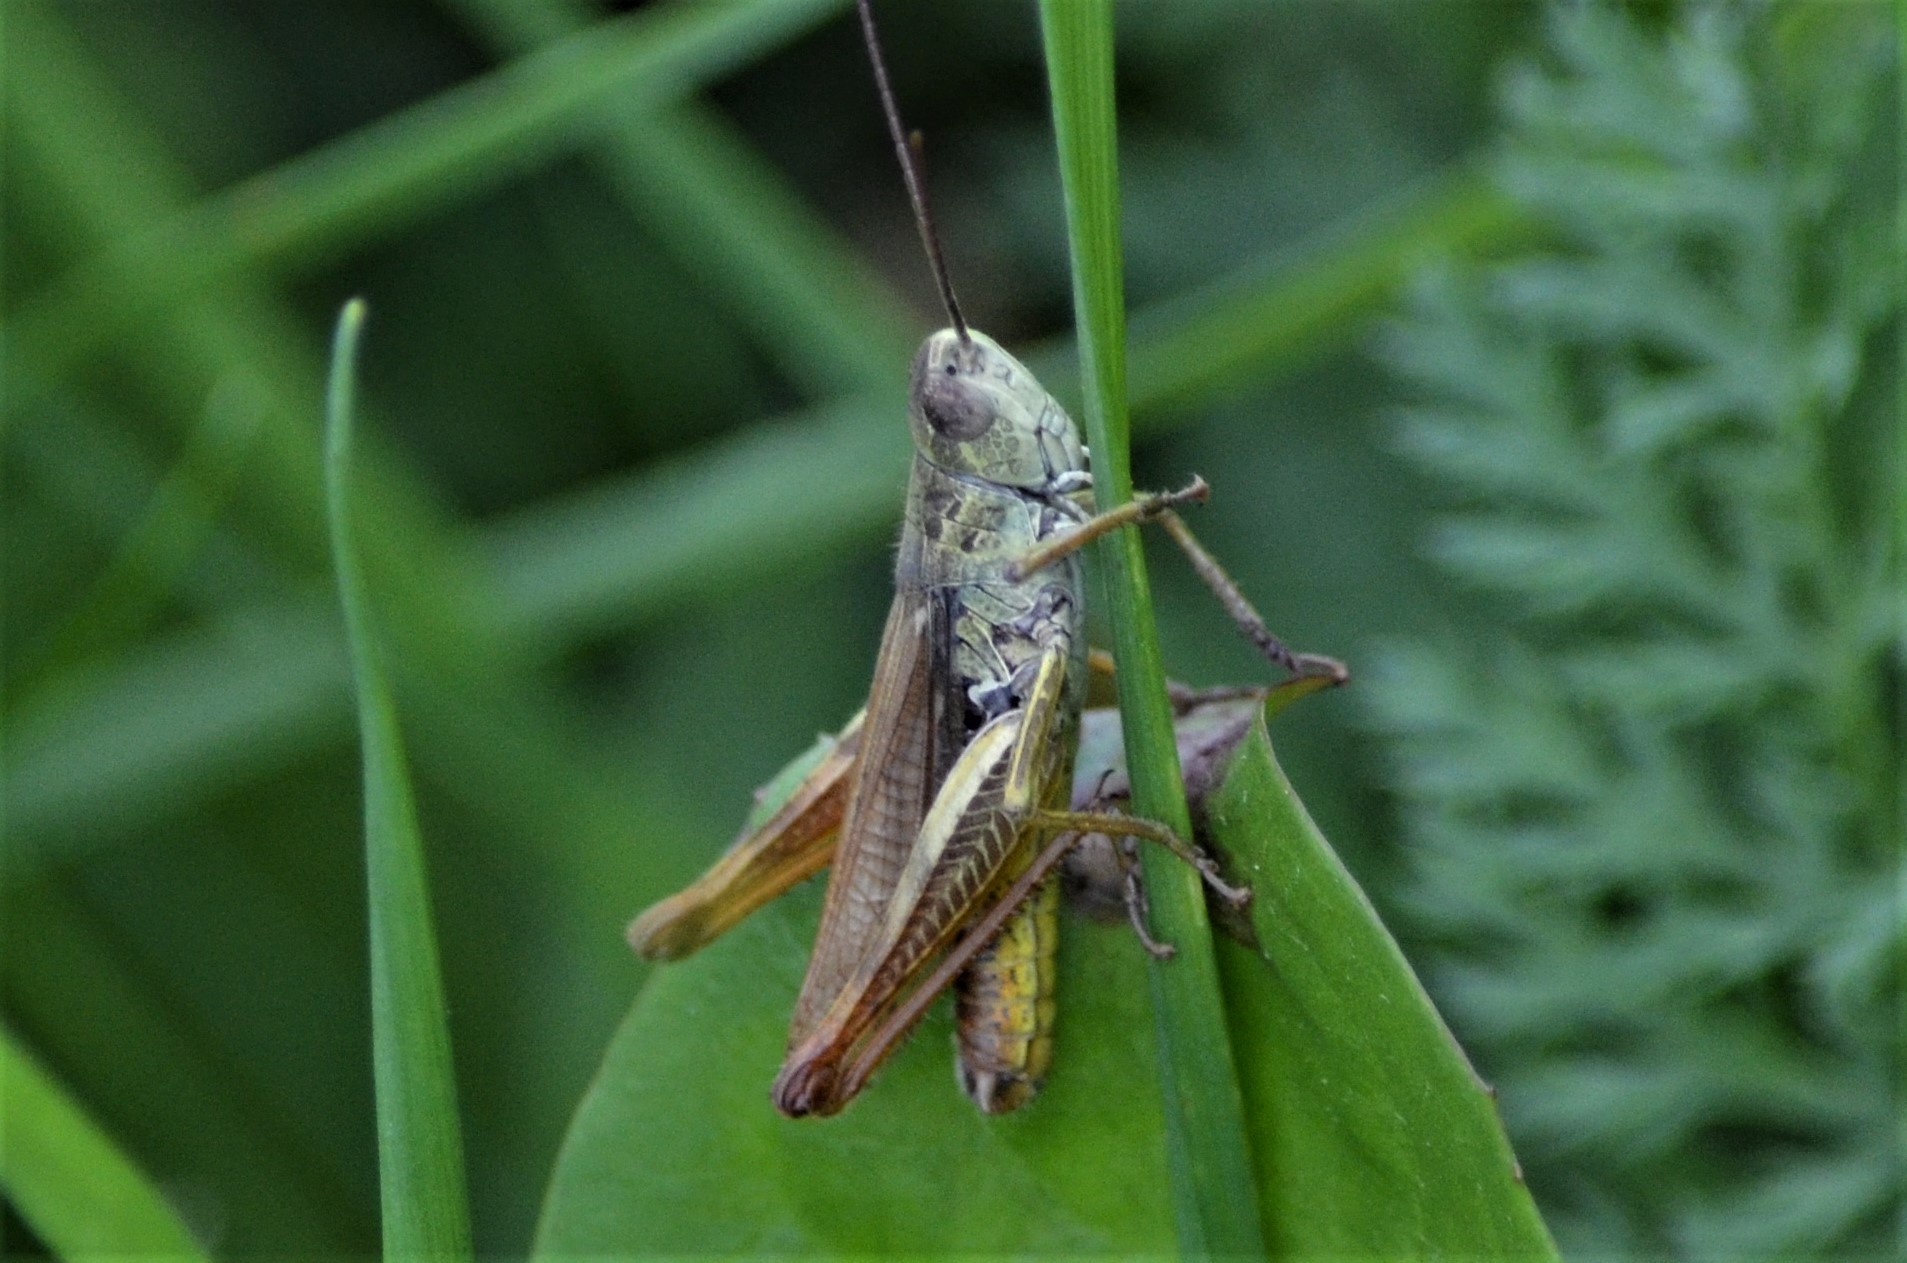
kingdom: Animalia
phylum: Arthropoda
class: Insecta
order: Orthoptera
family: Acrididae
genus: Stauroderus
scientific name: Stauroderus scalaris
